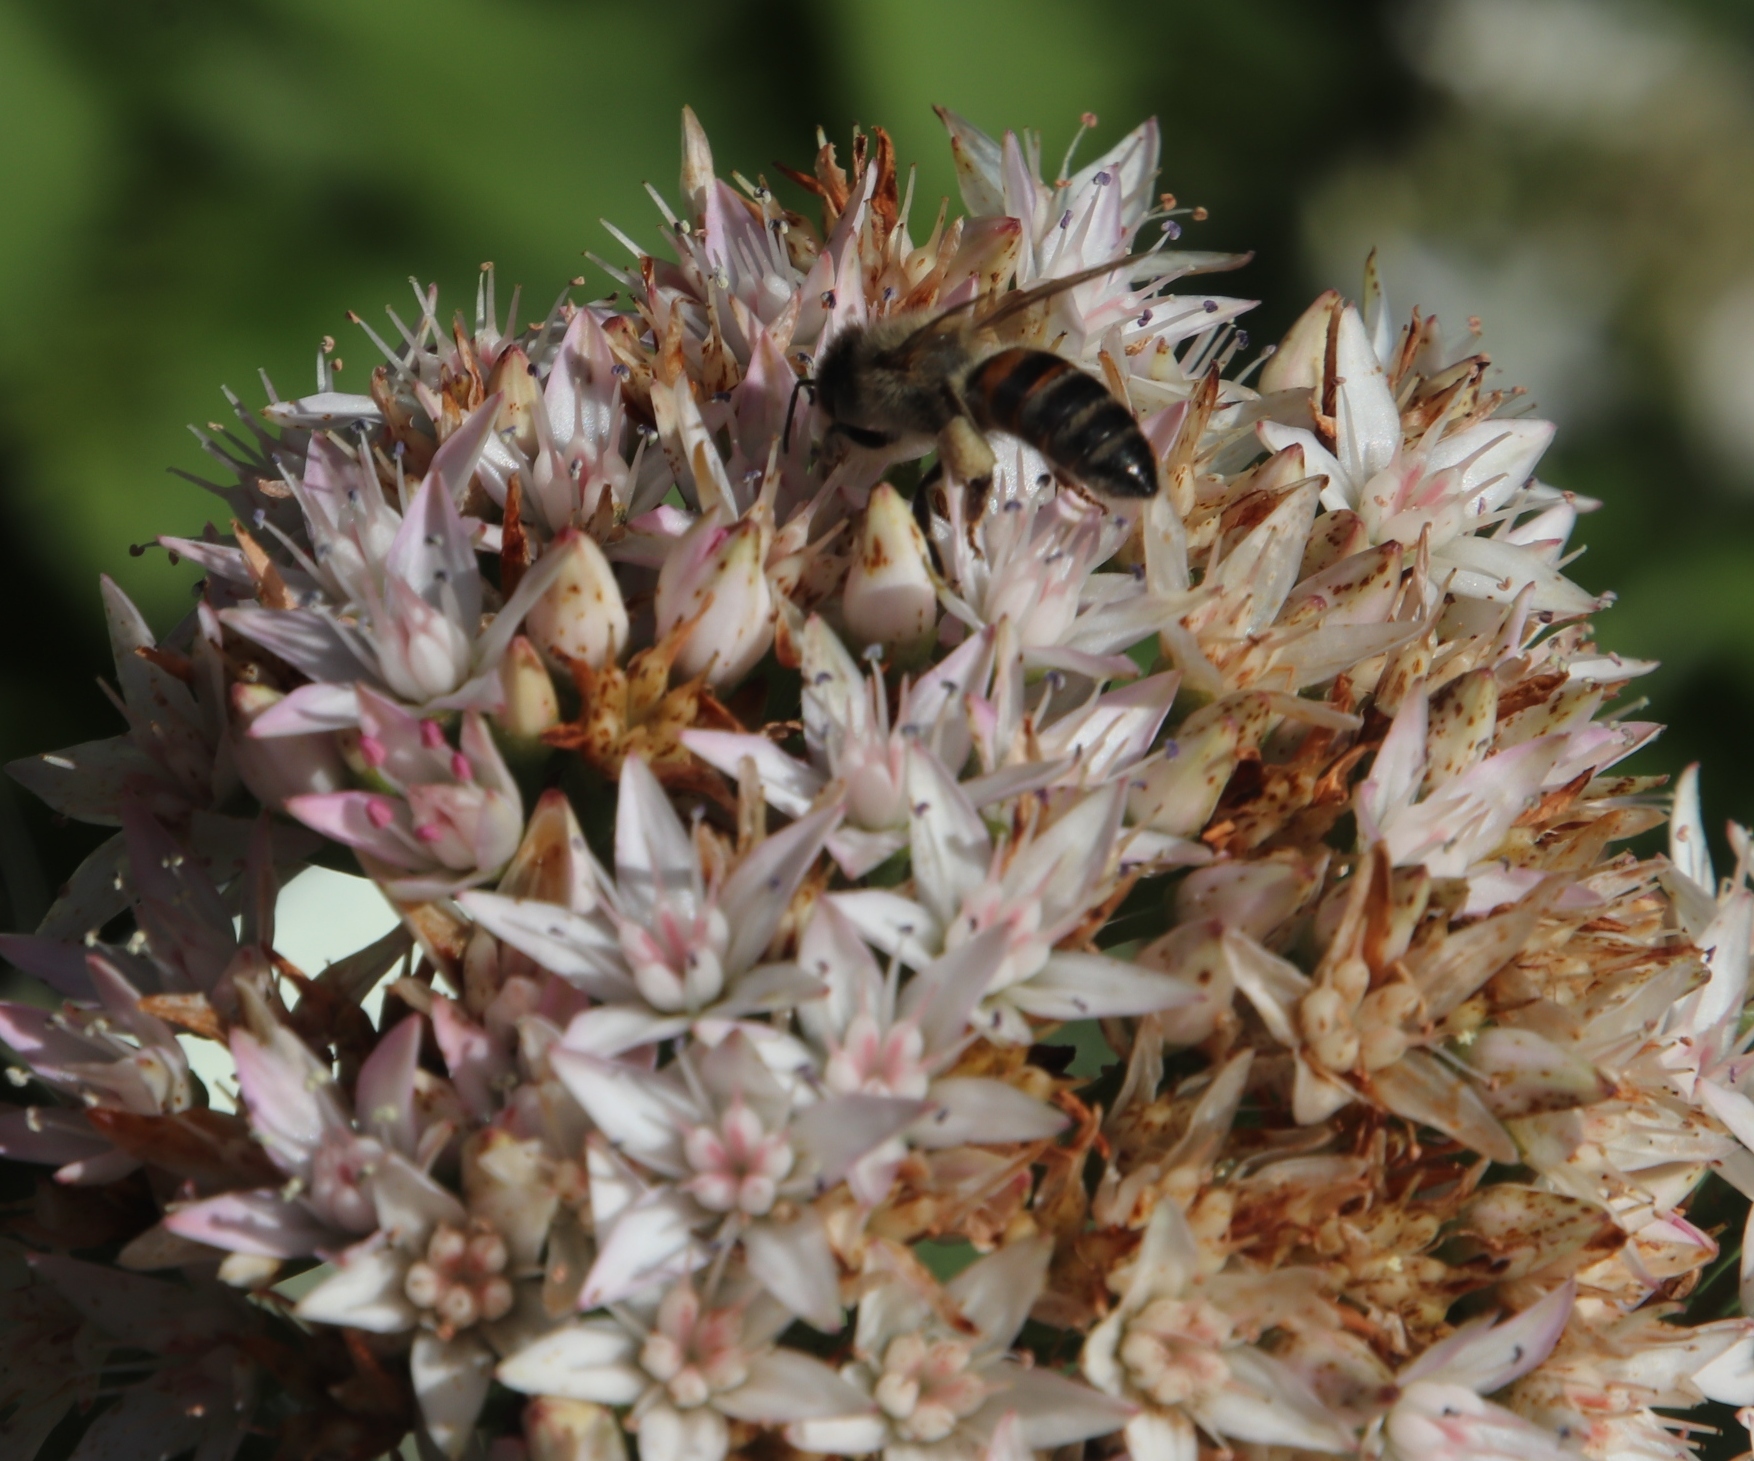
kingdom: Animalia
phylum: Arthropoda
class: Insecta
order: Hymenoptera
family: Apidae
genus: Apis
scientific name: Apis mellifera
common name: Honey bee
